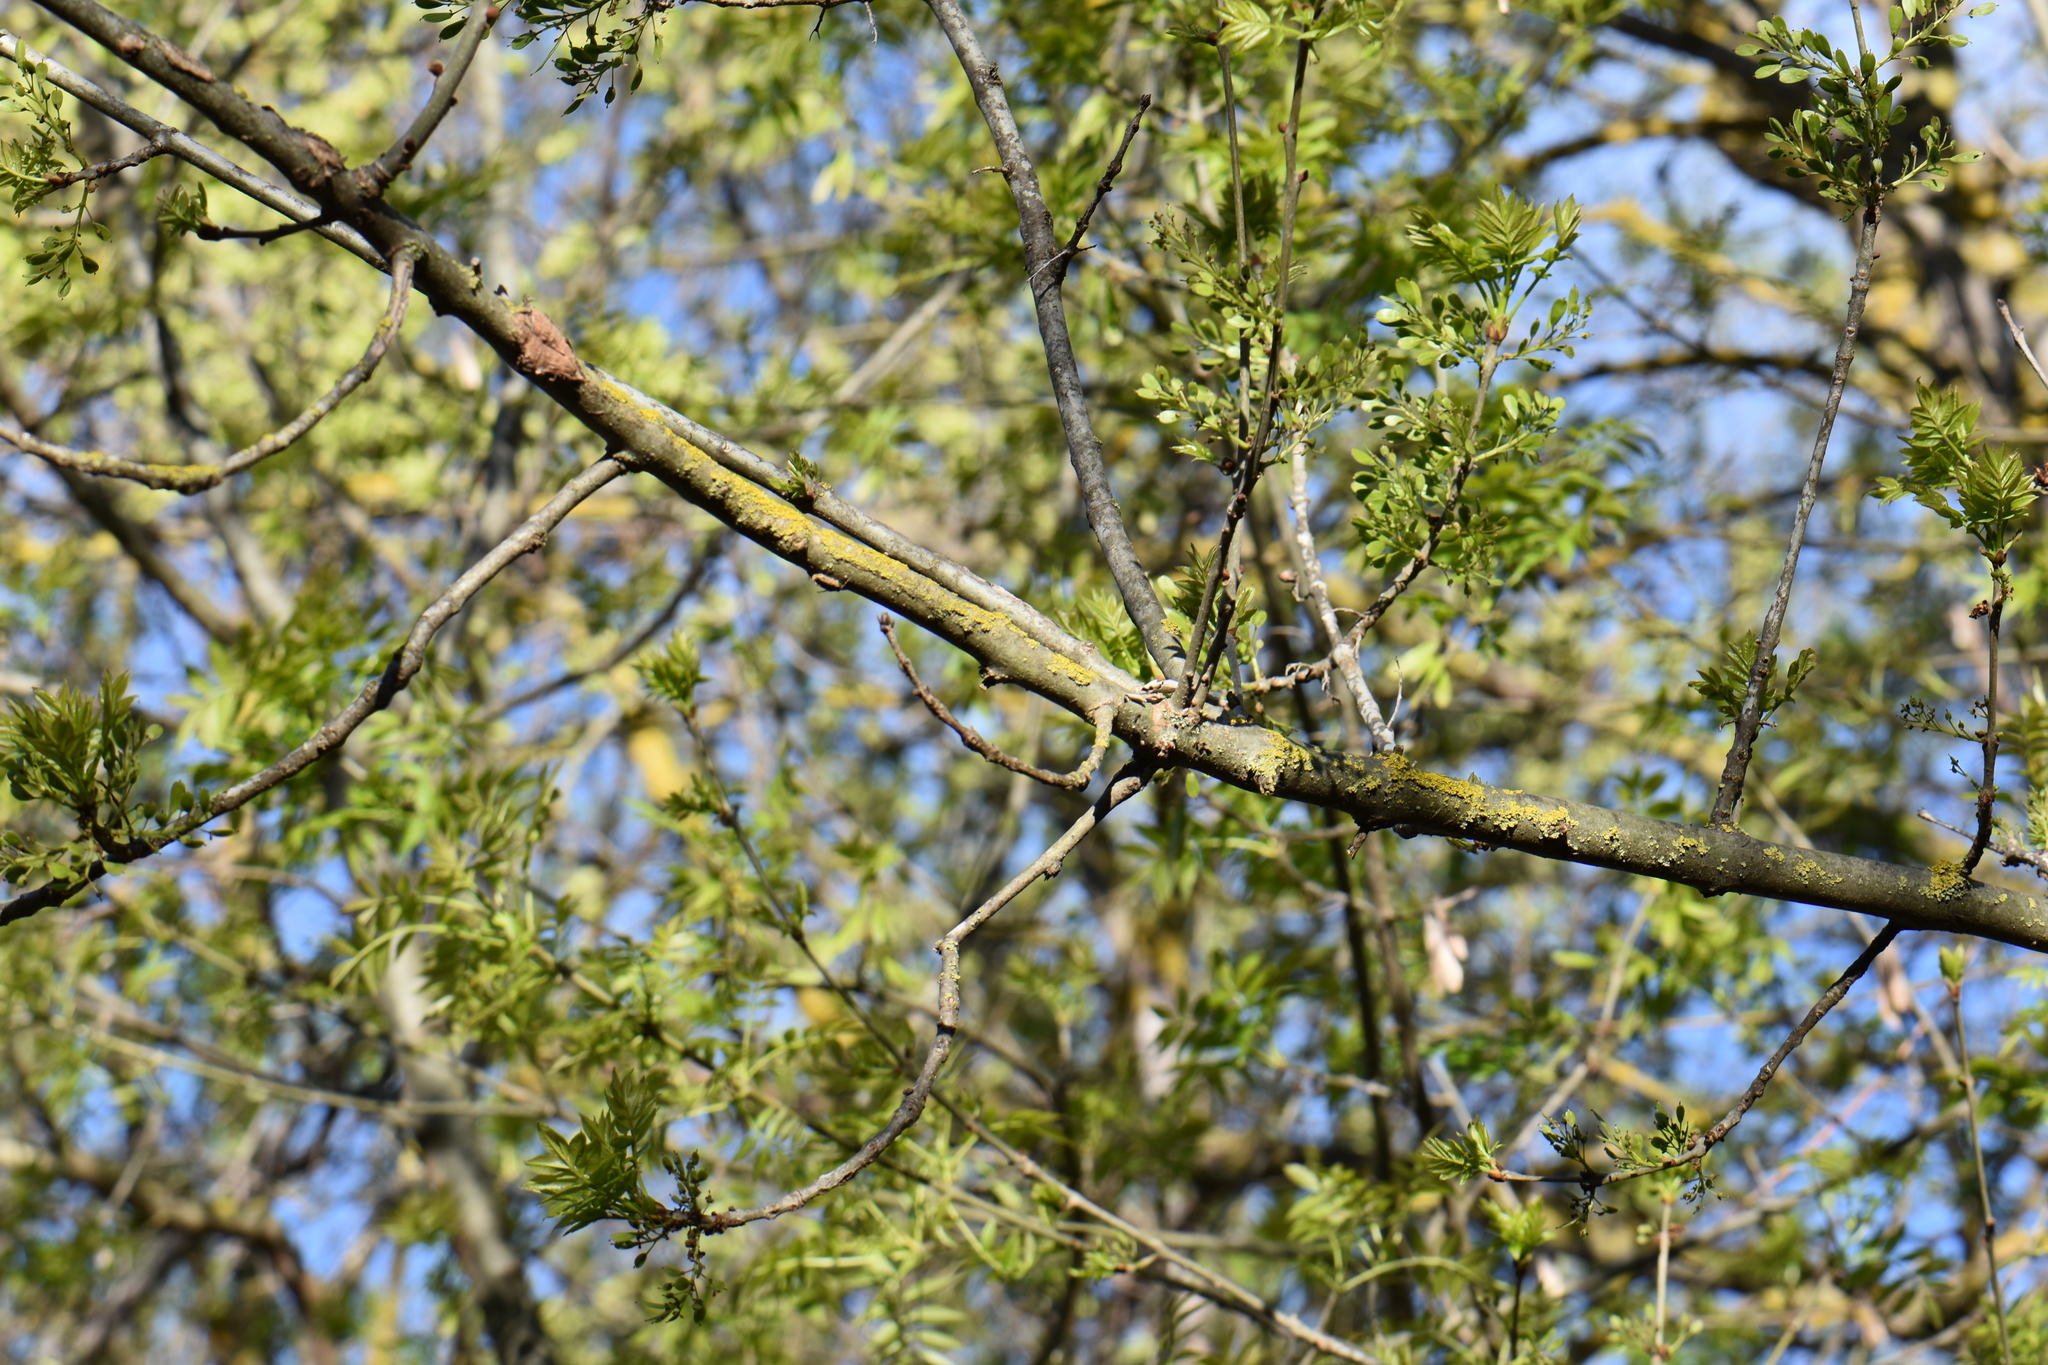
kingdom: Plantae
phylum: Tracheophyta
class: Magnoliopsida
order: Lamiales
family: Oleaceae
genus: Fraxinus
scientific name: Fraxinus angustifolia
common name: Narrow-leafed ash
